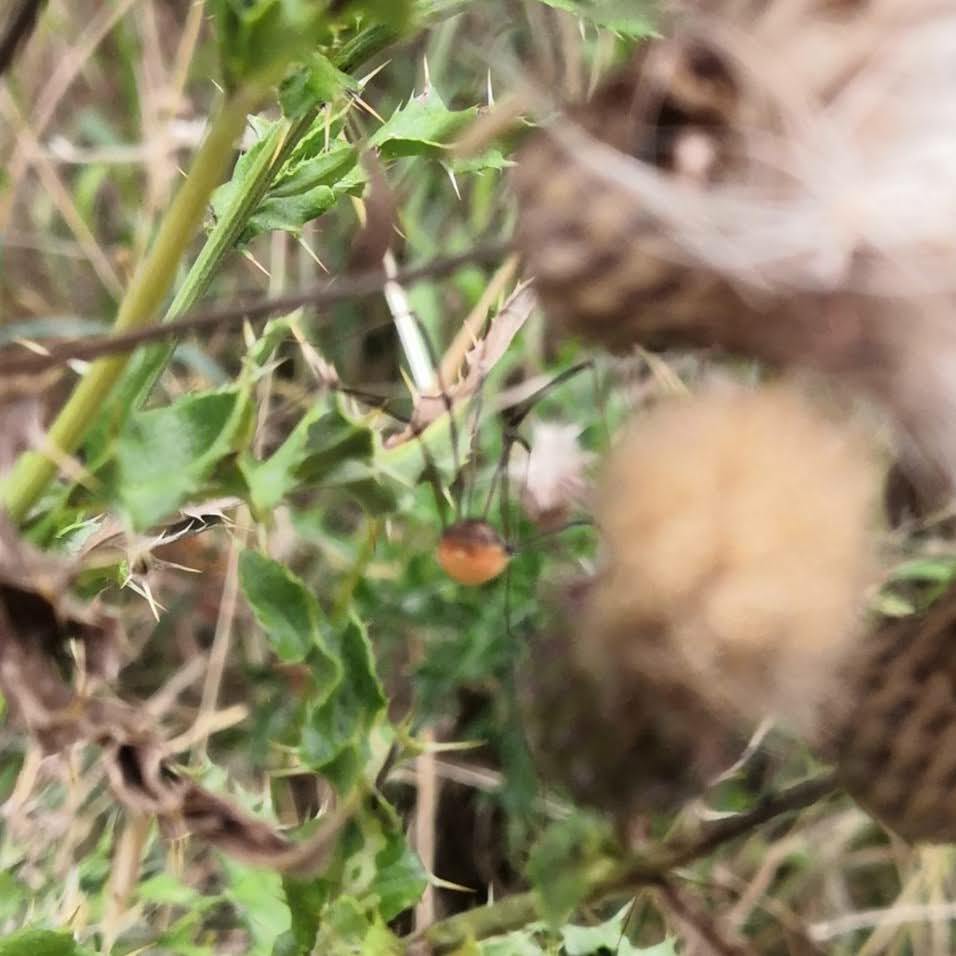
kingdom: Animalia
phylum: Arthropoda
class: Arachnida
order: Opiliones
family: Sclerosomatidae
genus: Leiobunum
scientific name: Leiobunum rotundum
